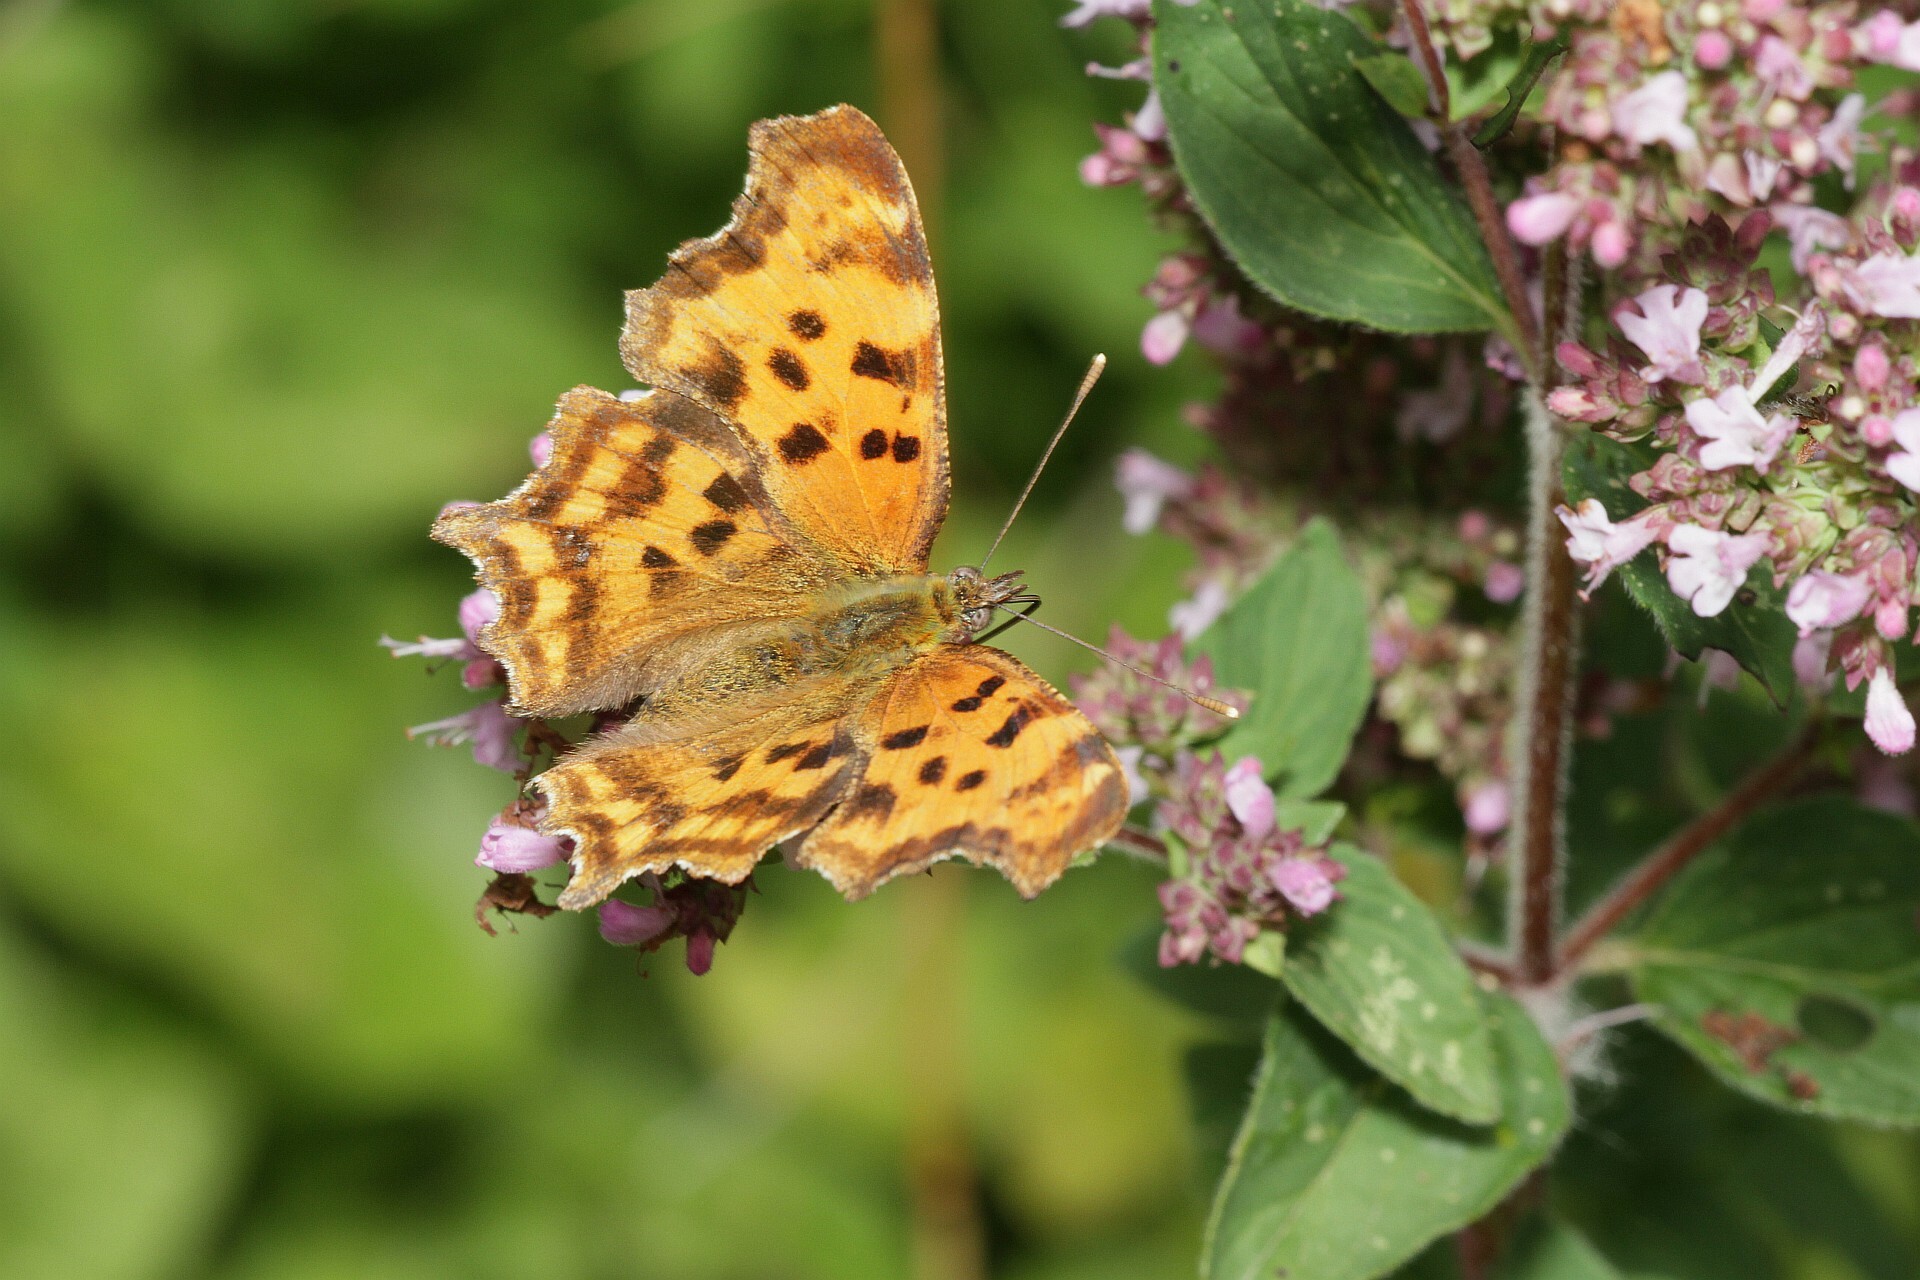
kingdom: Animalia
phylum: Arthropoda
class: Insecta
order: Lepidoptera
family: Nymphalidae
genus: Polygonia
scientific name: Polygonia c-album
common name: Comma
